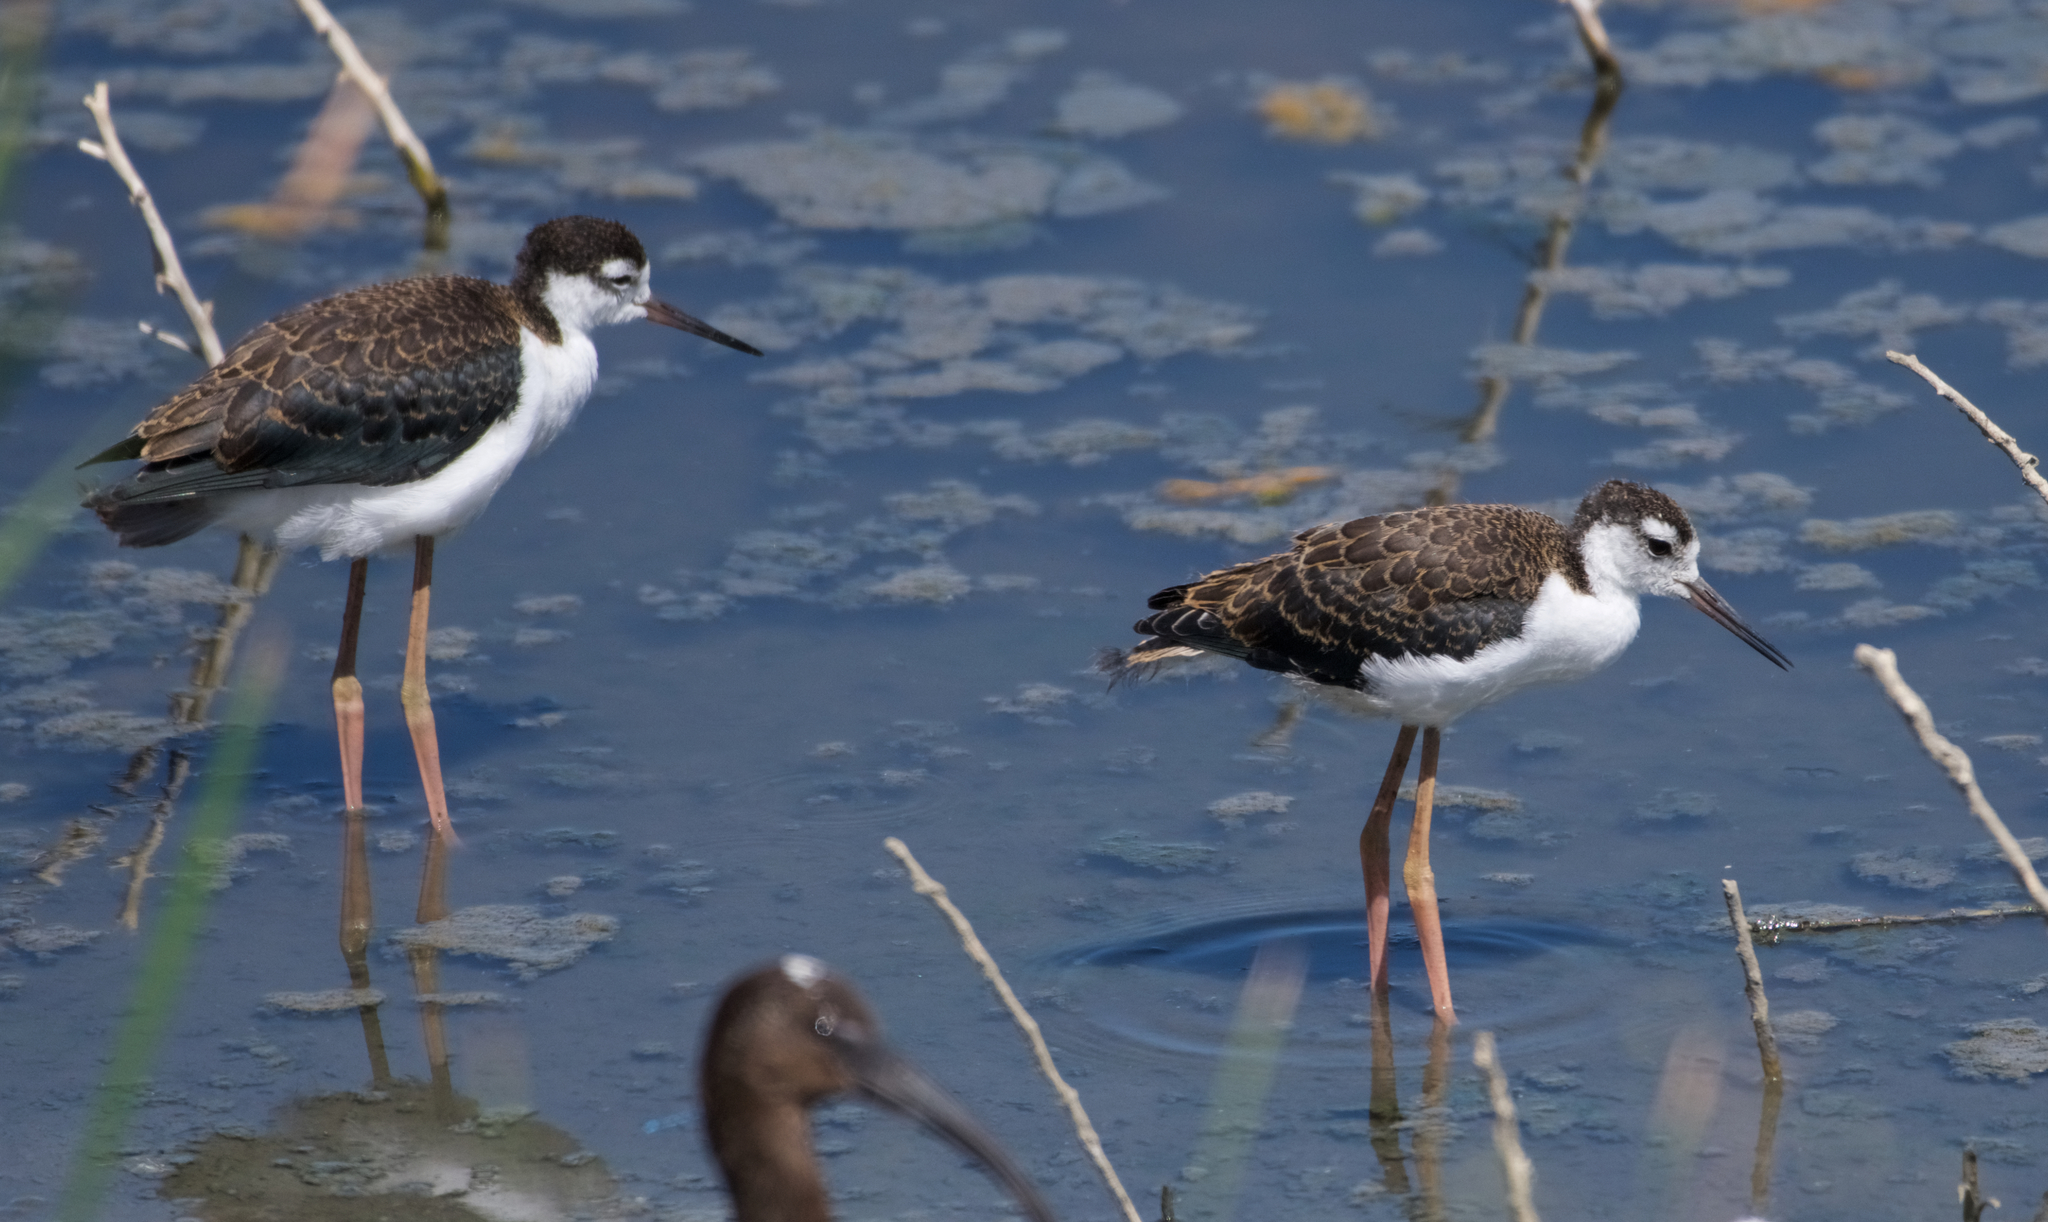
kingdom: Animalia
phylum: Chordata
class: Aves
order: Charadriiformes
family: Recurvirostridae
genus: Himantopus
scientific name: Himantopus mexicanus
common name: Black-necked stilt
